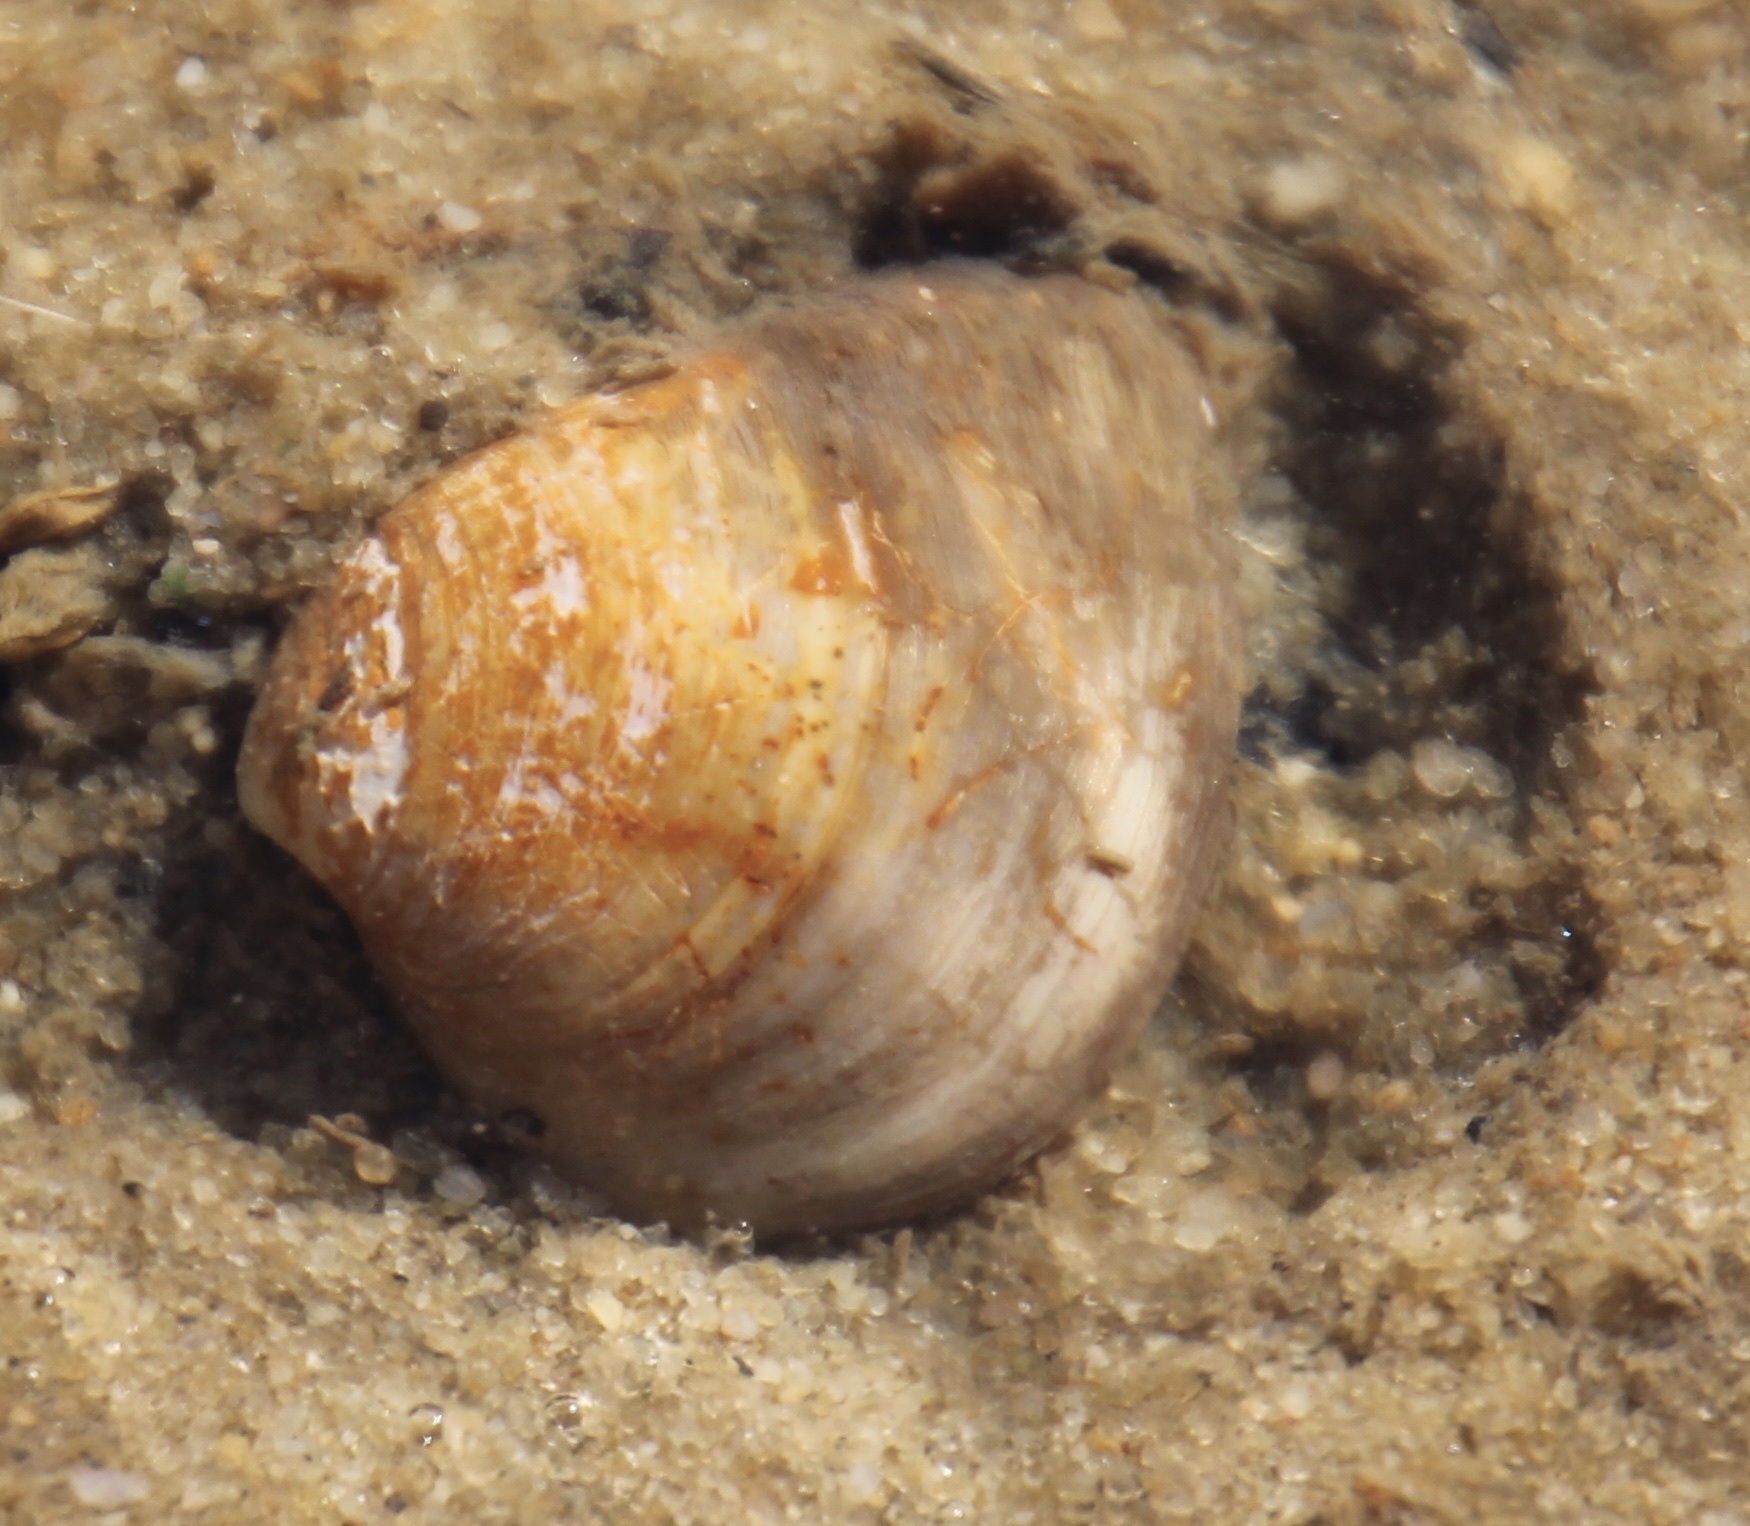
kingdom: Animalia
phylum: Mollusca
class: Bivalvia
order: Venerida
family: Mactridae
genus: Rangia
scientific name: Rangia cuneata
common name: Atlantic rangia
